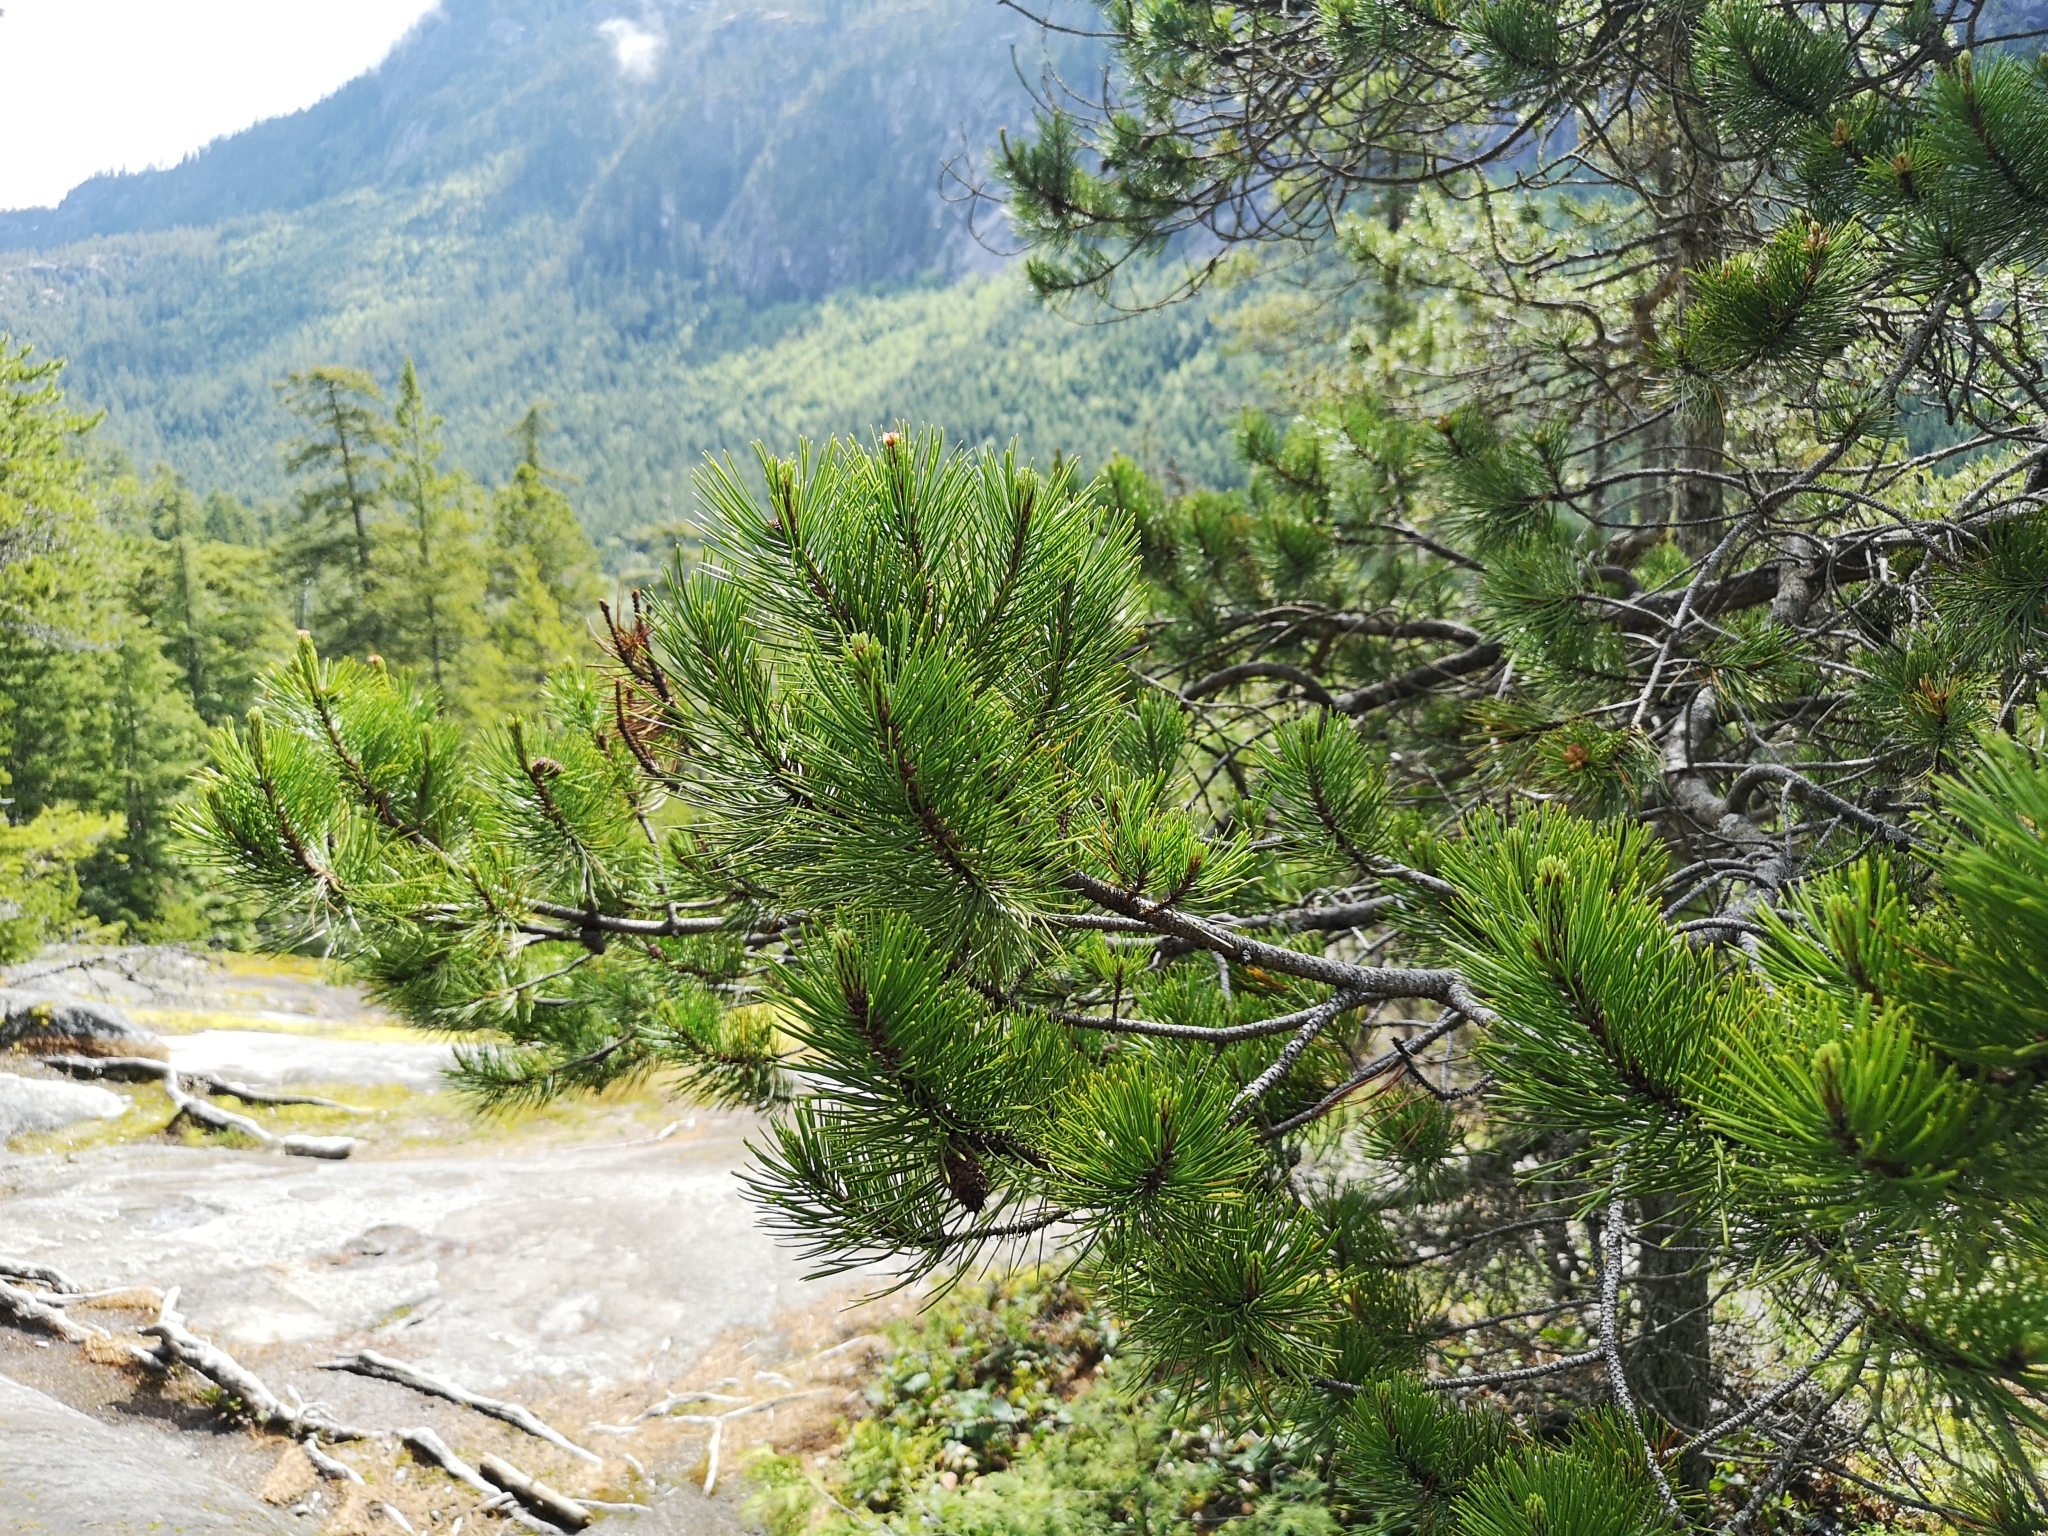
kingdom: Plantae
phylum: Tracheophyta
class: Pinopsida
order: Pinales
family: Pinaceae
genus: Pinus
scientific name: Pinus contorta
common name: Lodgepole pine
